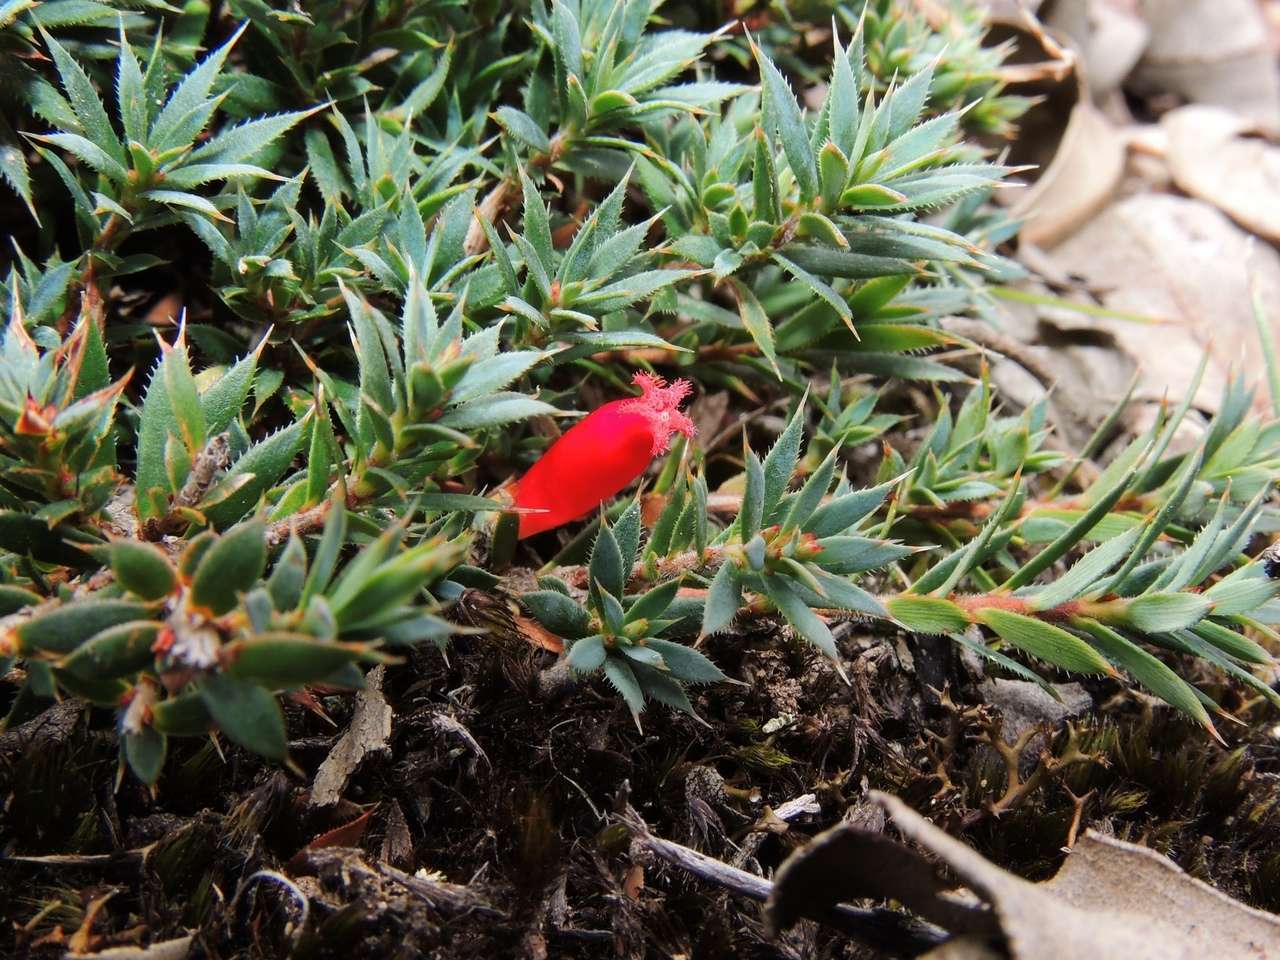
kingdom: Plantae
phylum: Tracheophyta
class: Magnoliopsida
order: Ericales
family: Ericaceae
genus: Styphelia
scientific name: Styphelia humifusa
